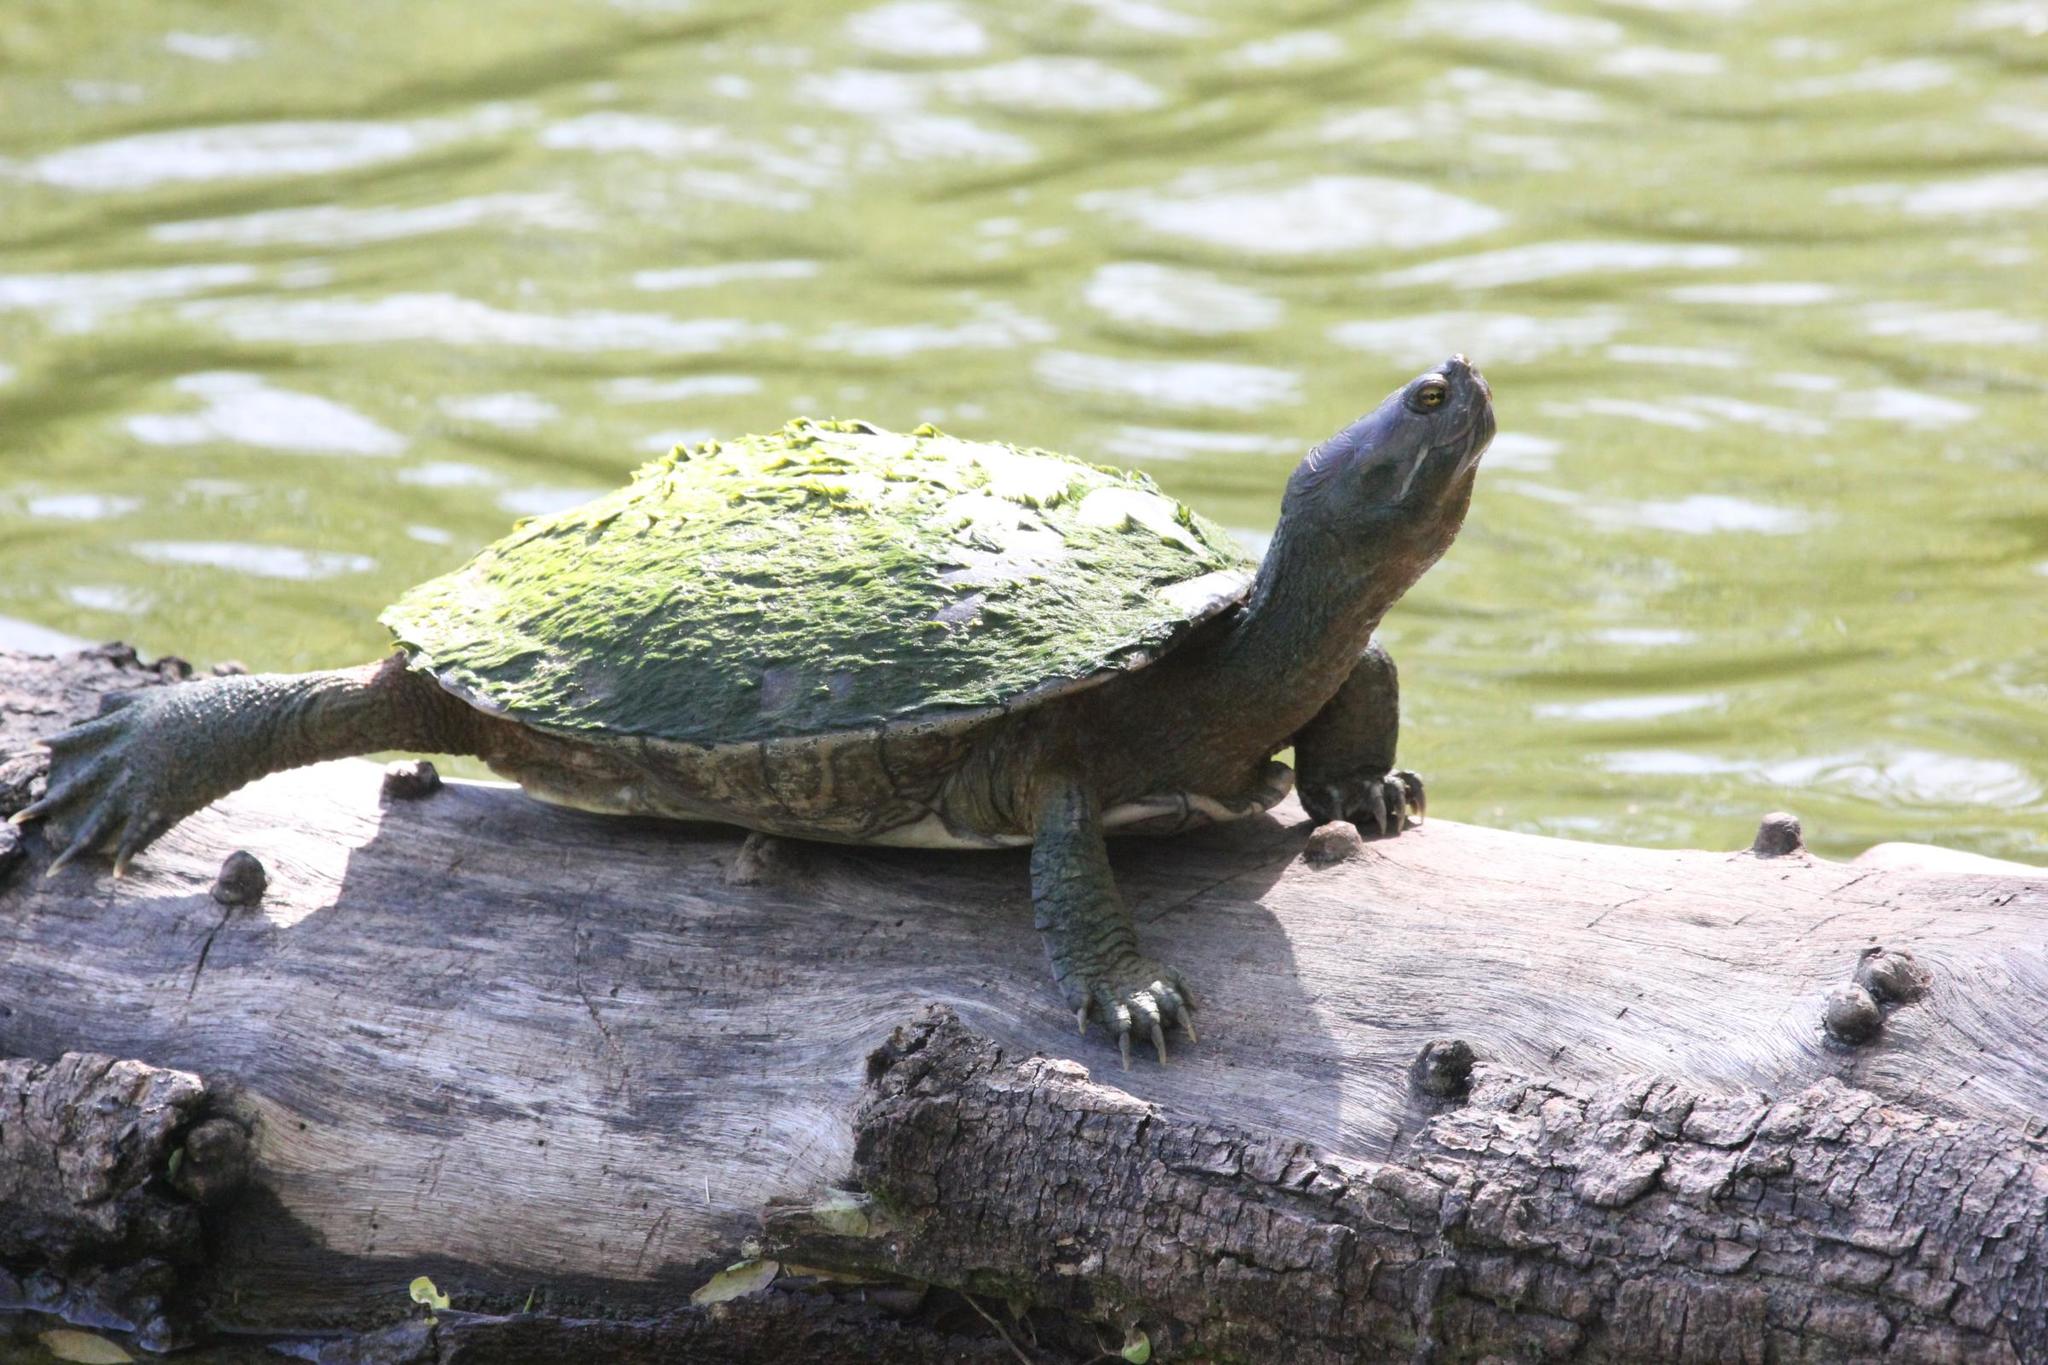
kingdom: Animalia
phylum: Chordata
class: Testudines
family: Emydidae
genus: Trachemys
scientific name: Trachemys stejnegeri
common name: Puerto rican slider
